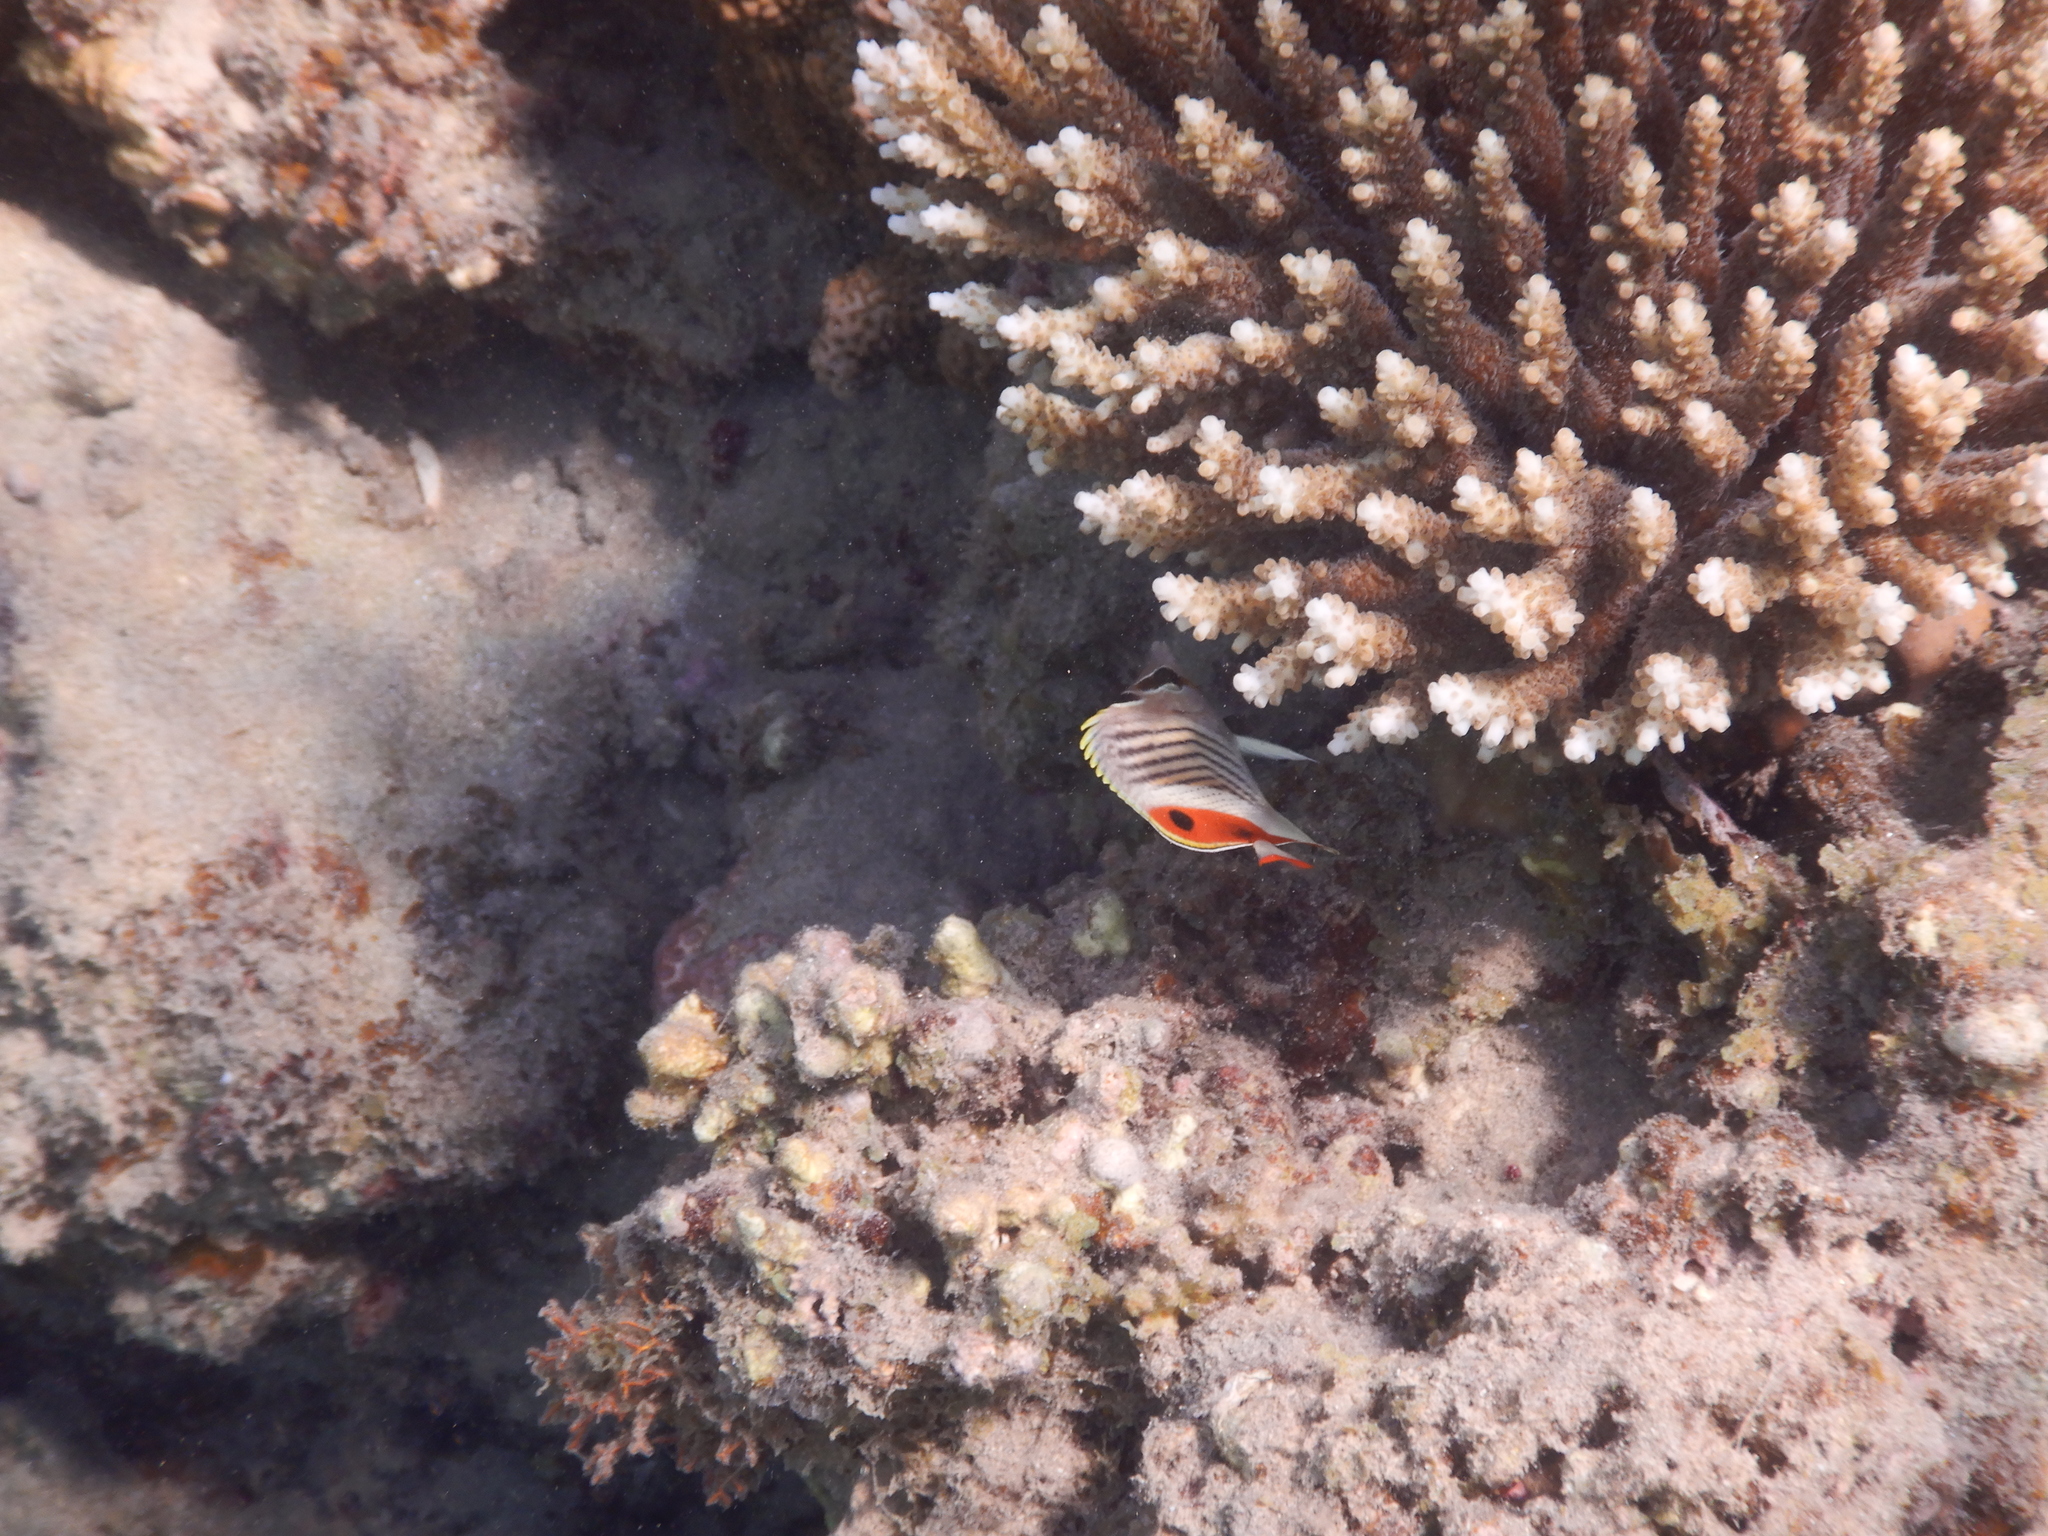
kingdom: Animalia
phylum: Chordata
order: Perciformes
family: Chaetodontidae
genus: Chaetodon
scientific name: Chaetodon paucifasciatus
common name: Crown butterflyfish
